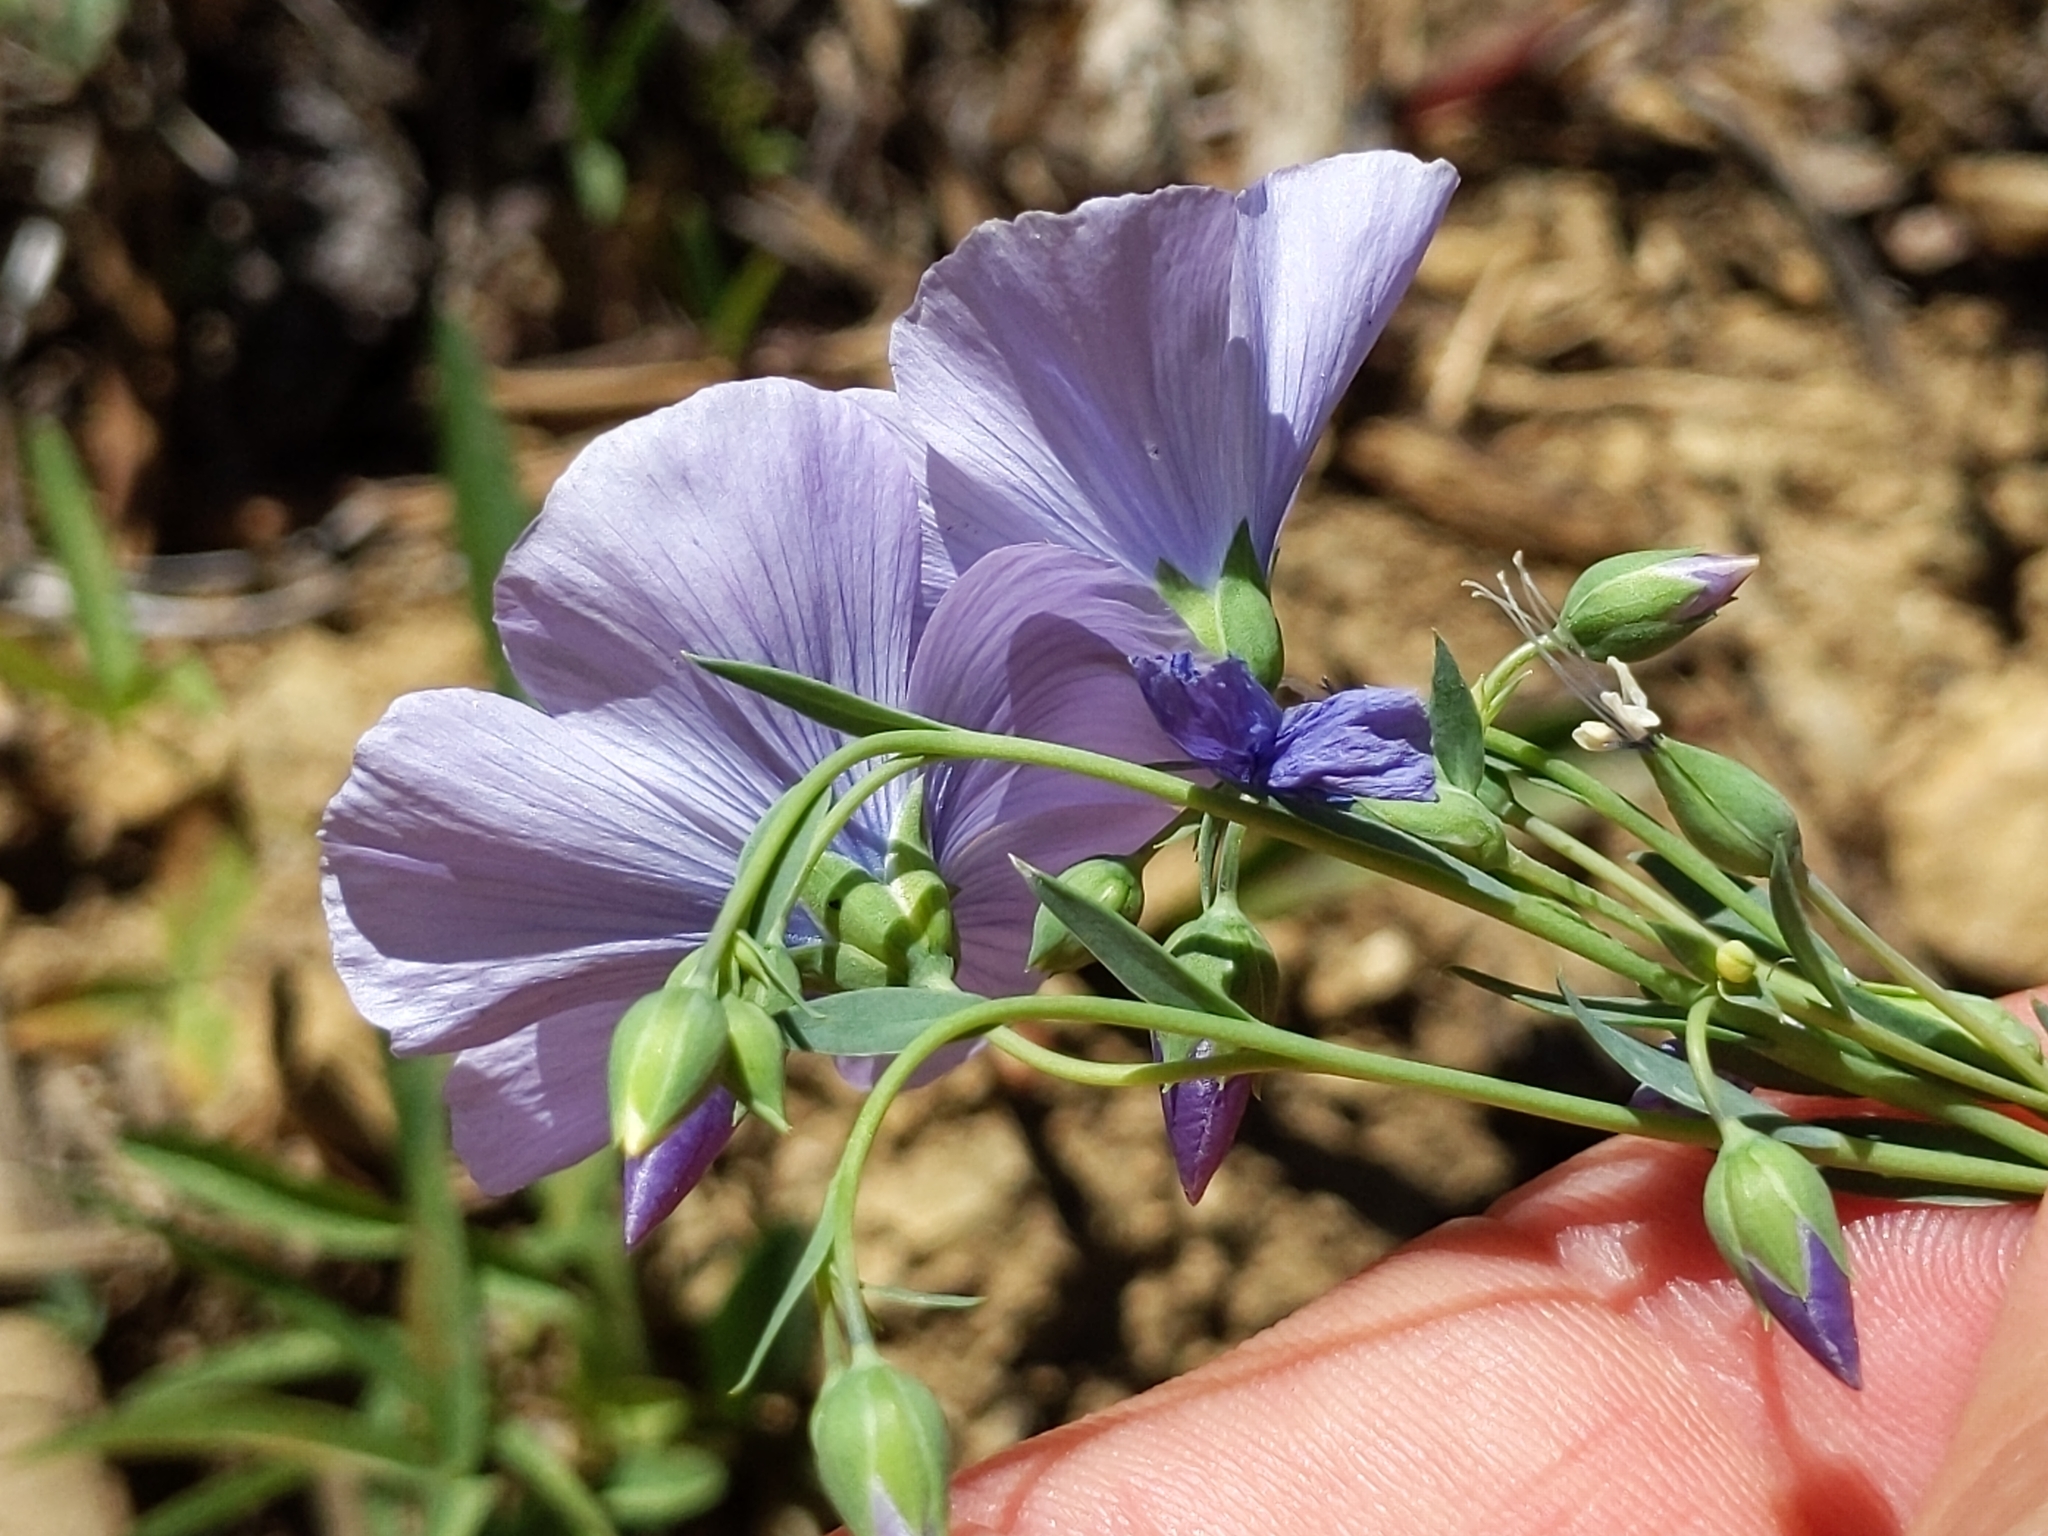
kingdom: Plantae
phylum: Tracheophyta
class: Magnoliopsida
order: Malpighiales
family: Linaceae
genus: Linum
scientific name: Linum lewisii
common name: Prairie flax
